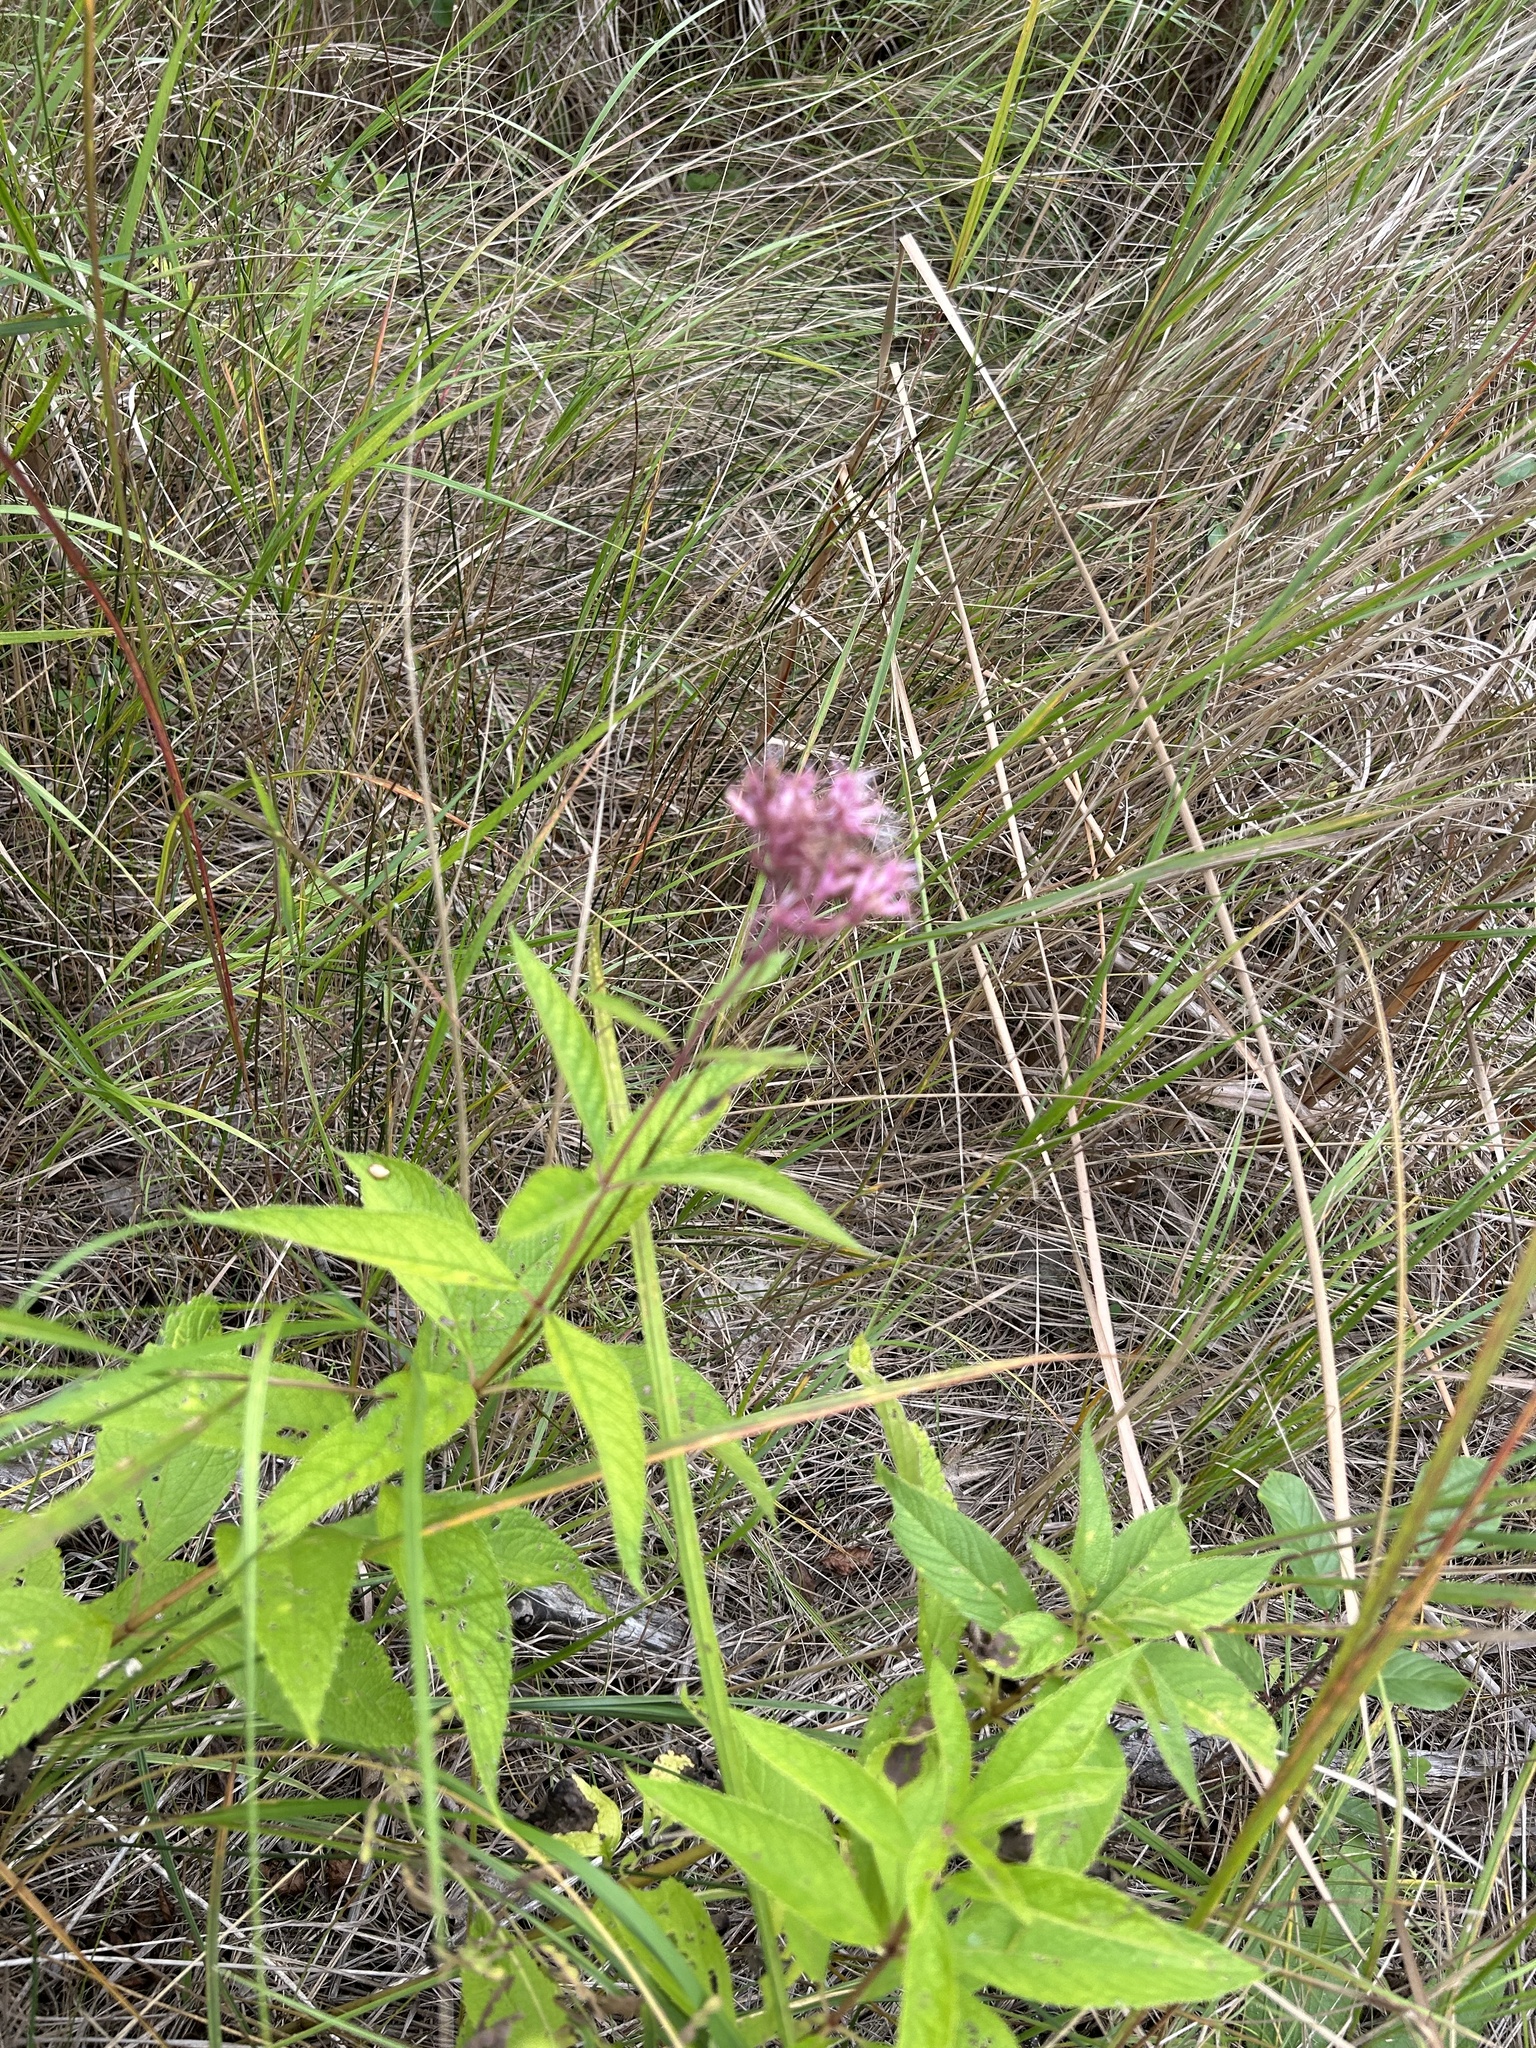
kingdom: Plantae
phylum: Tracheophyta
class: Magnoliopsida
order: Asterales
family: Asteraceae
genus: Eutrochium
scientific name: Eutrochium maculatum
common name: Spotted joe pye weed
